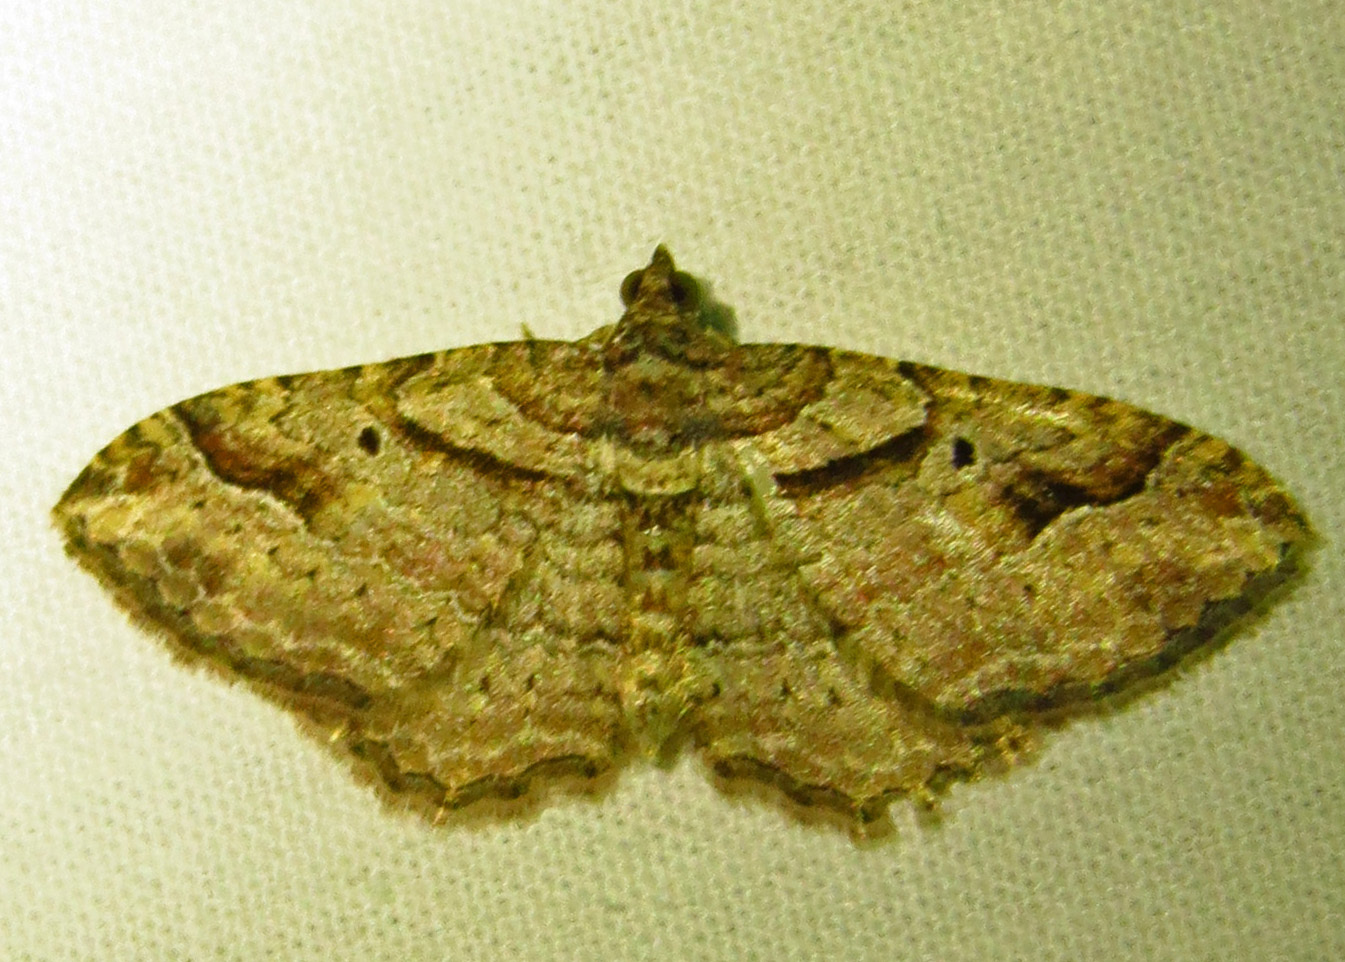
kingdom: Animalia
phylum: Arthropoda
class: Insecta
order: Lepidoptera
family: Geometridae
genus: Costaconvexa
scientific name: Costaconvexa centrostrigaria
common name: Bent-line carpet
